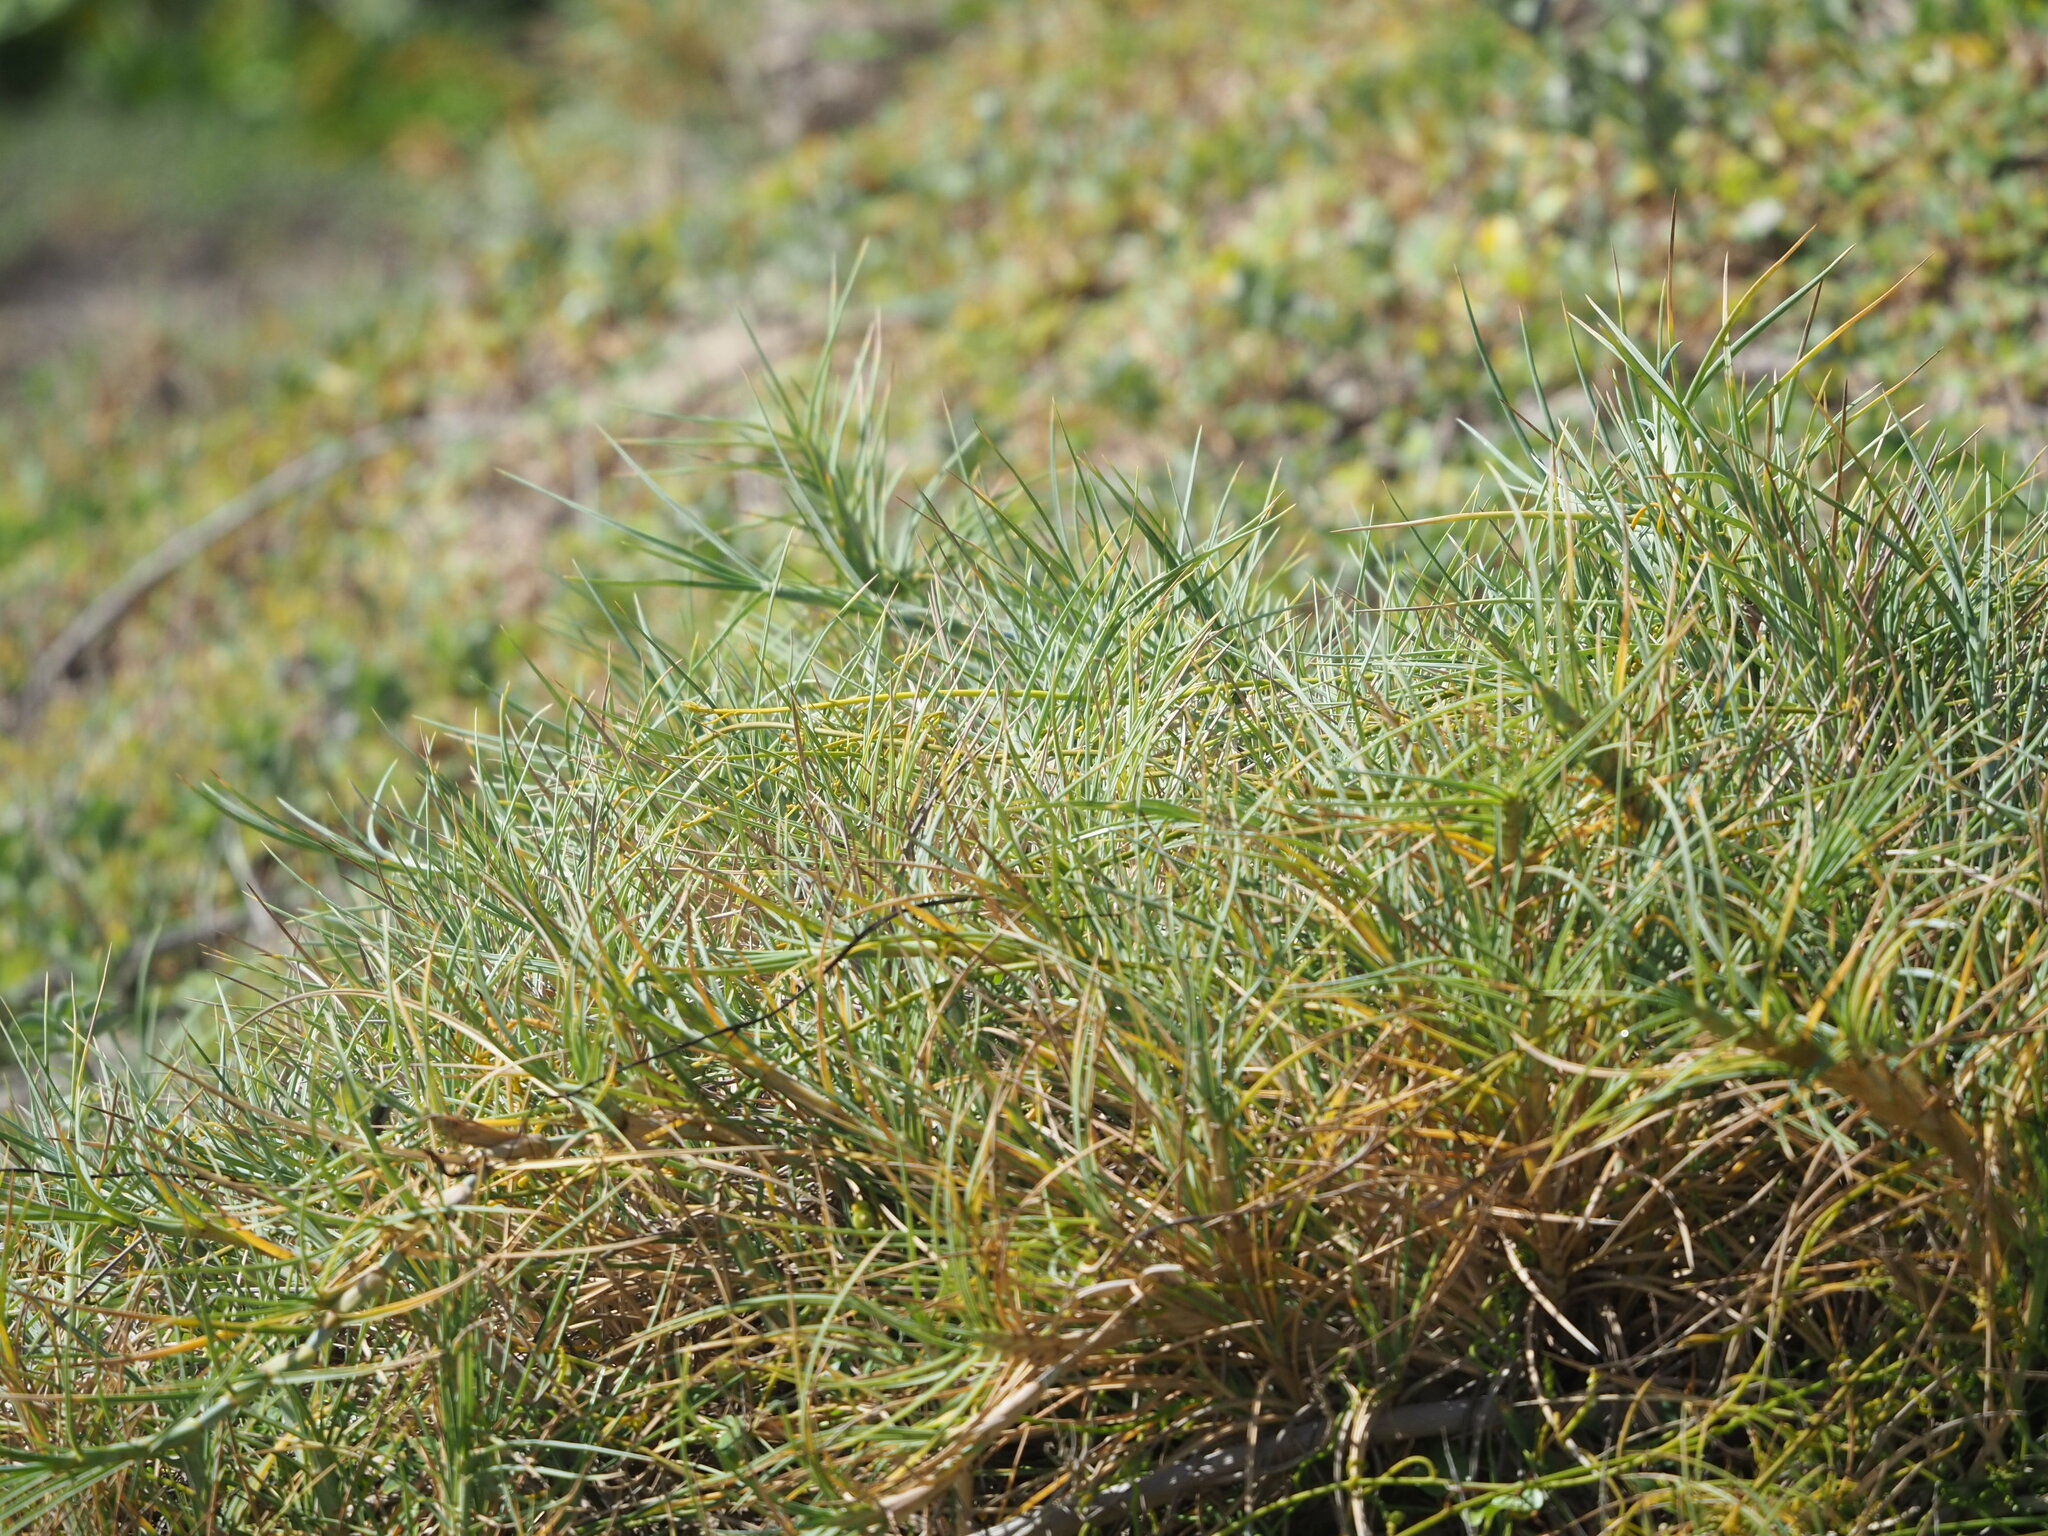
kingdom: Plantae
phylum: Tracheophyta
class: Liliopsida
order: Poales
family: Poaceae
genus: Spinifex
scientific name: Spinifex littoreus
